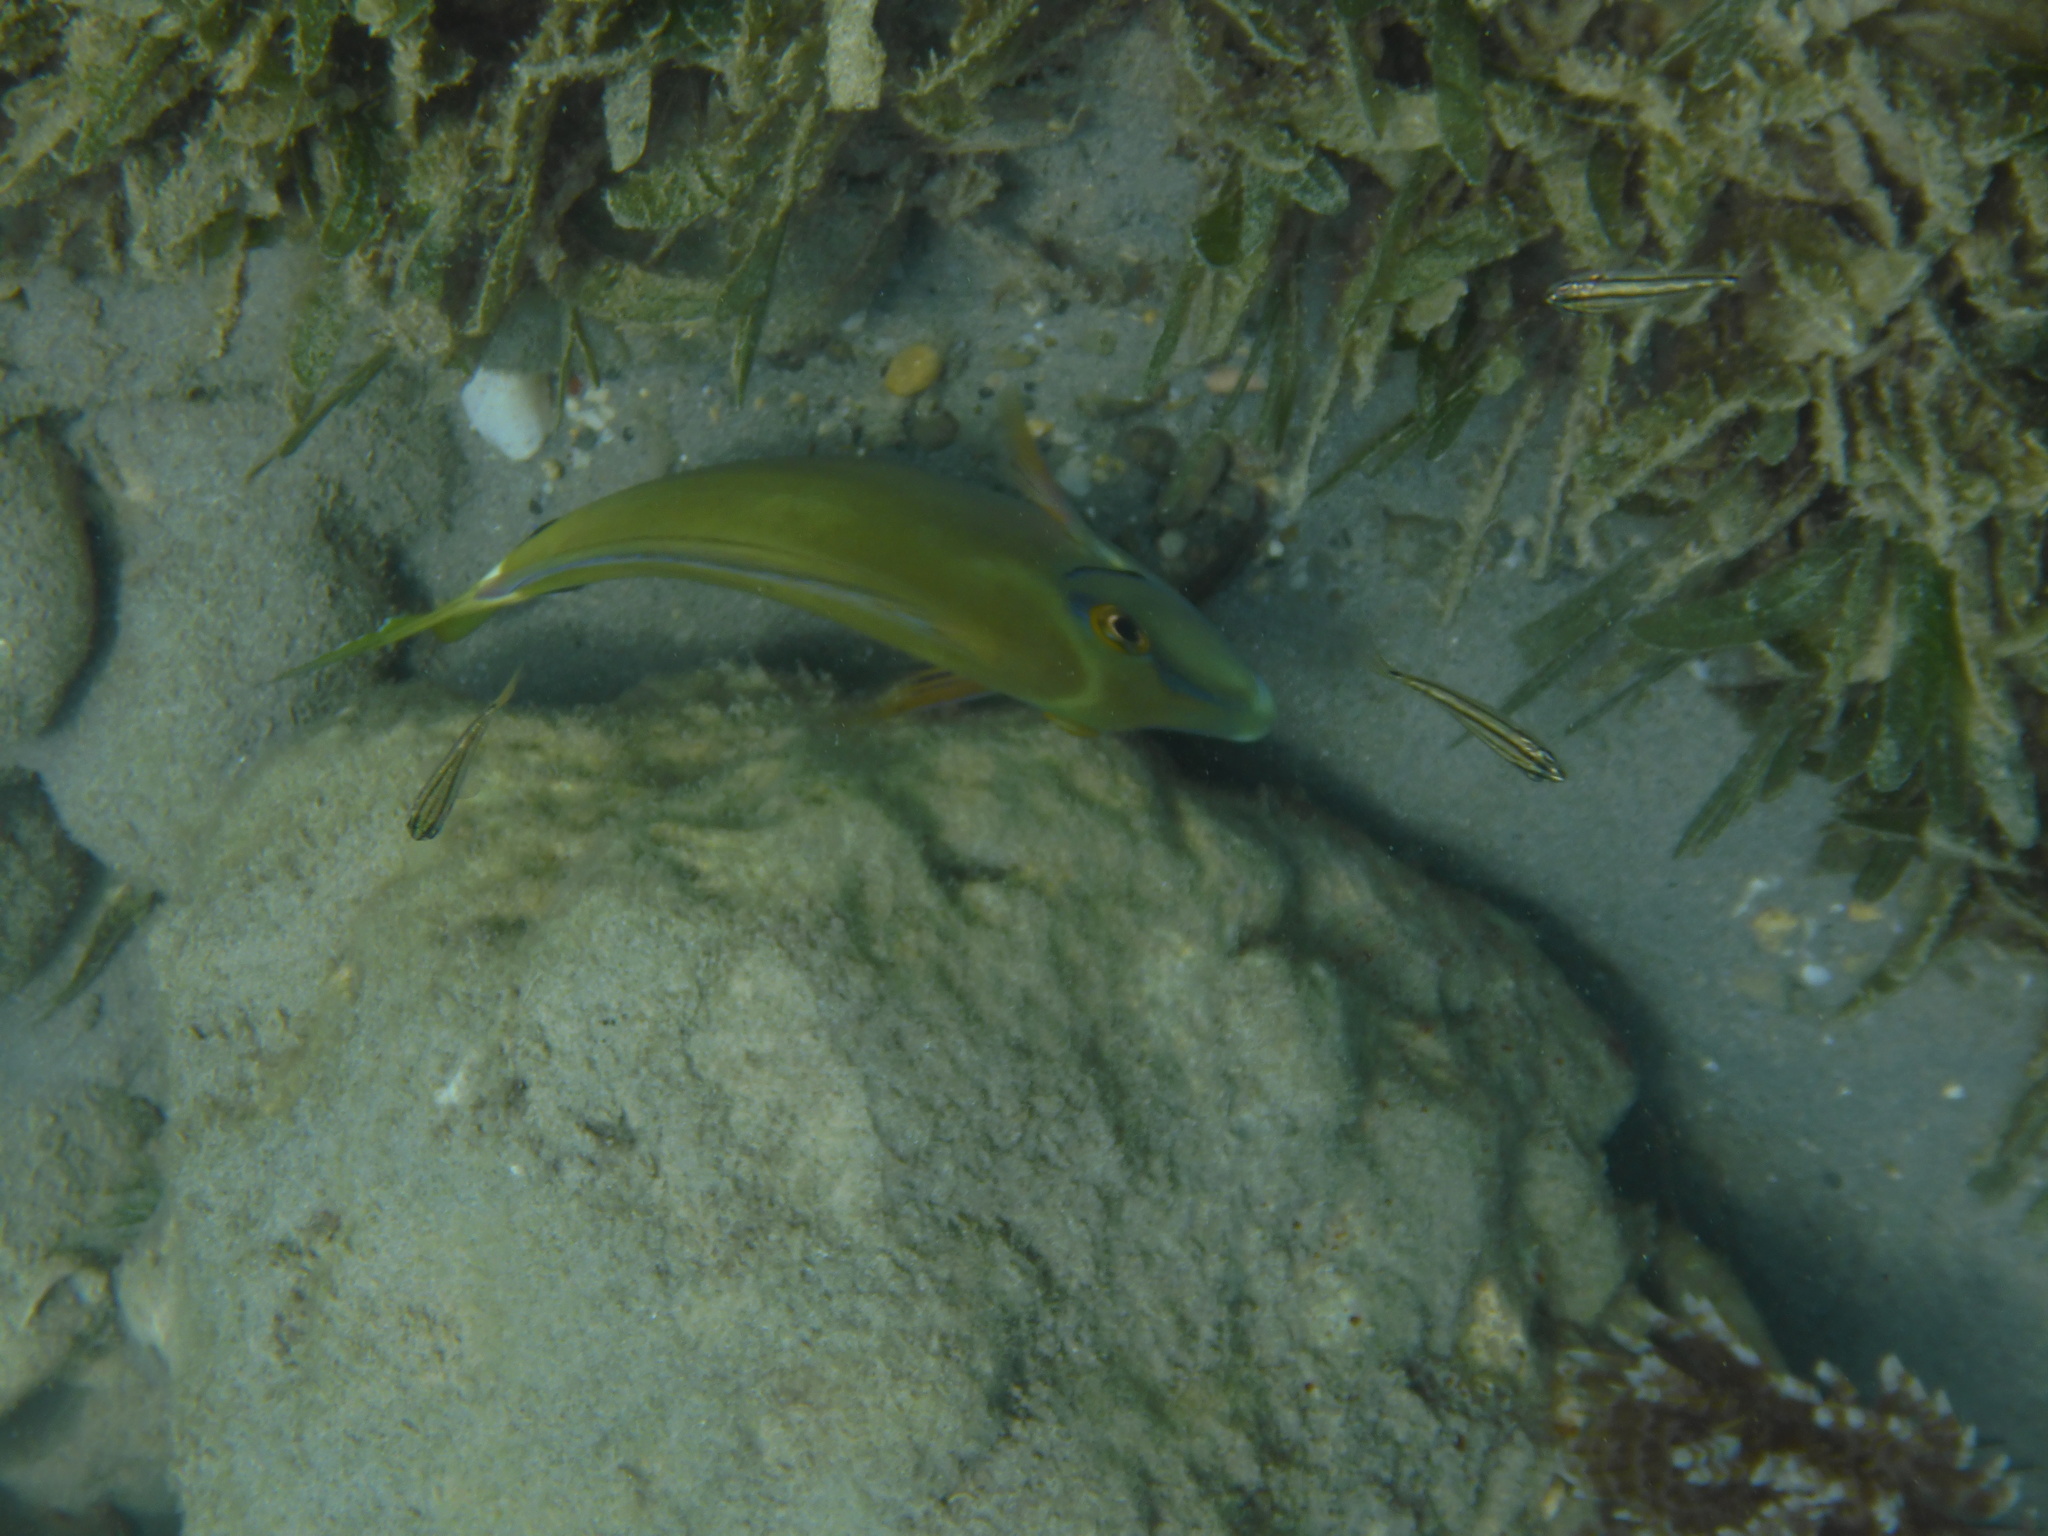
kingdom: Animalia
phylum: Chordata
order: Perciformes
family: Acanthuridae
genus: Acanthurus
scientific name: Acanthurus bahianus
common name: Ocean surgeon
